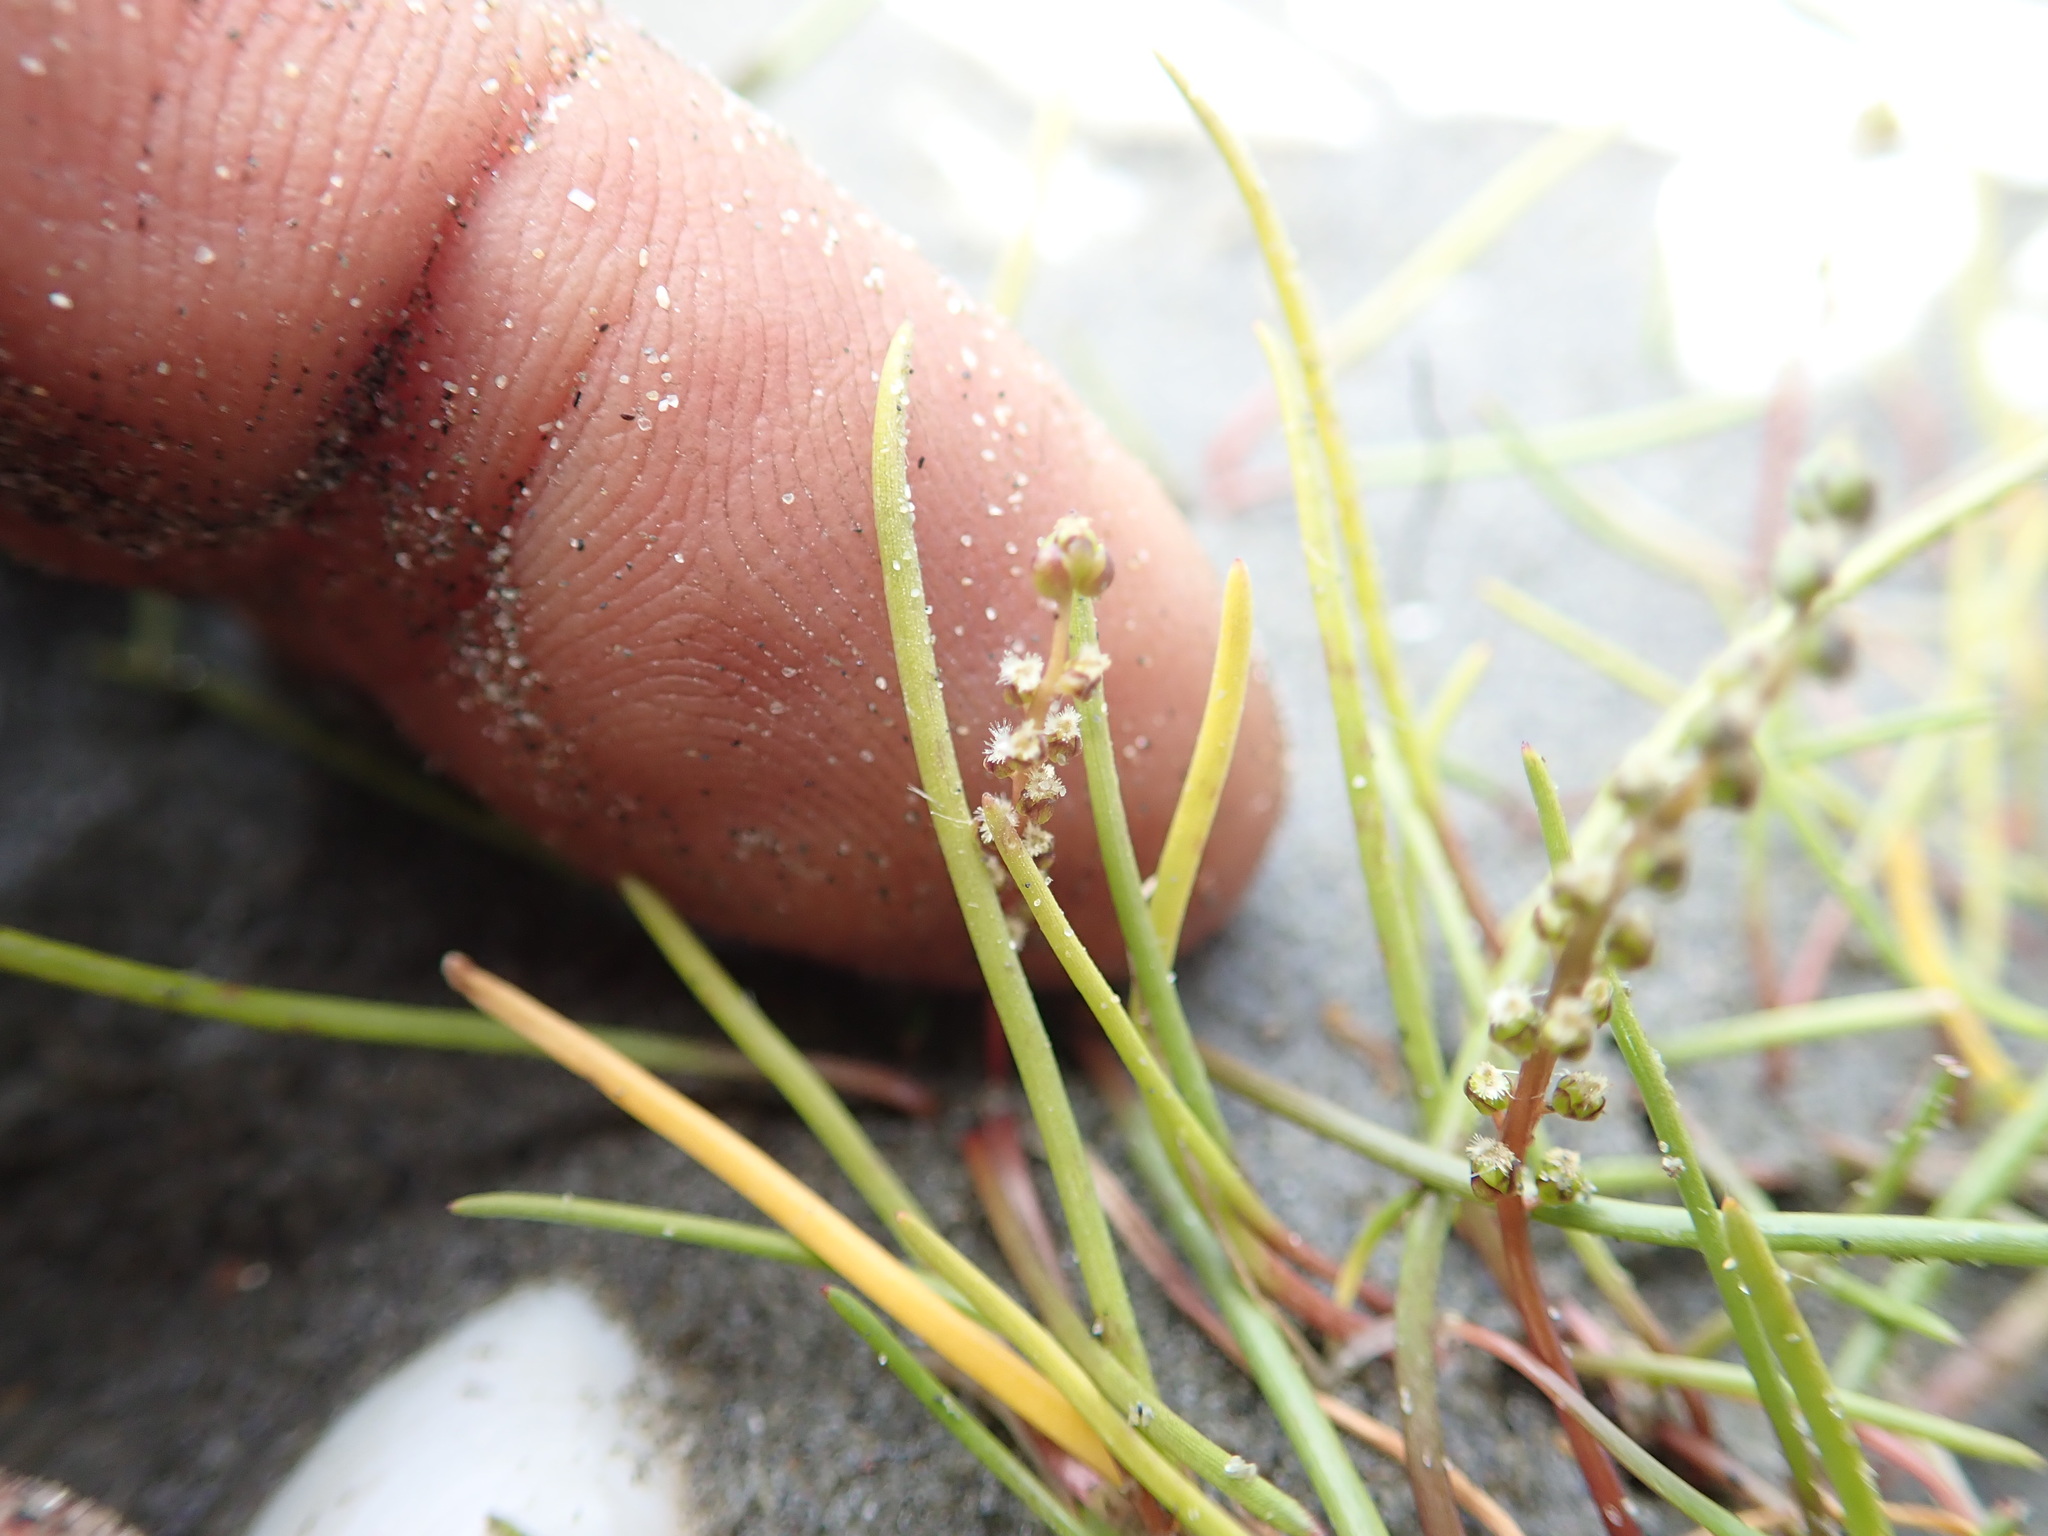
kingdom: Plantae
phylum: Tracheophyta
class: Liliopsida
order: Alismatales
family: Juncaginaceae
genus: Triglochin
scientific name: Triglochin striata
